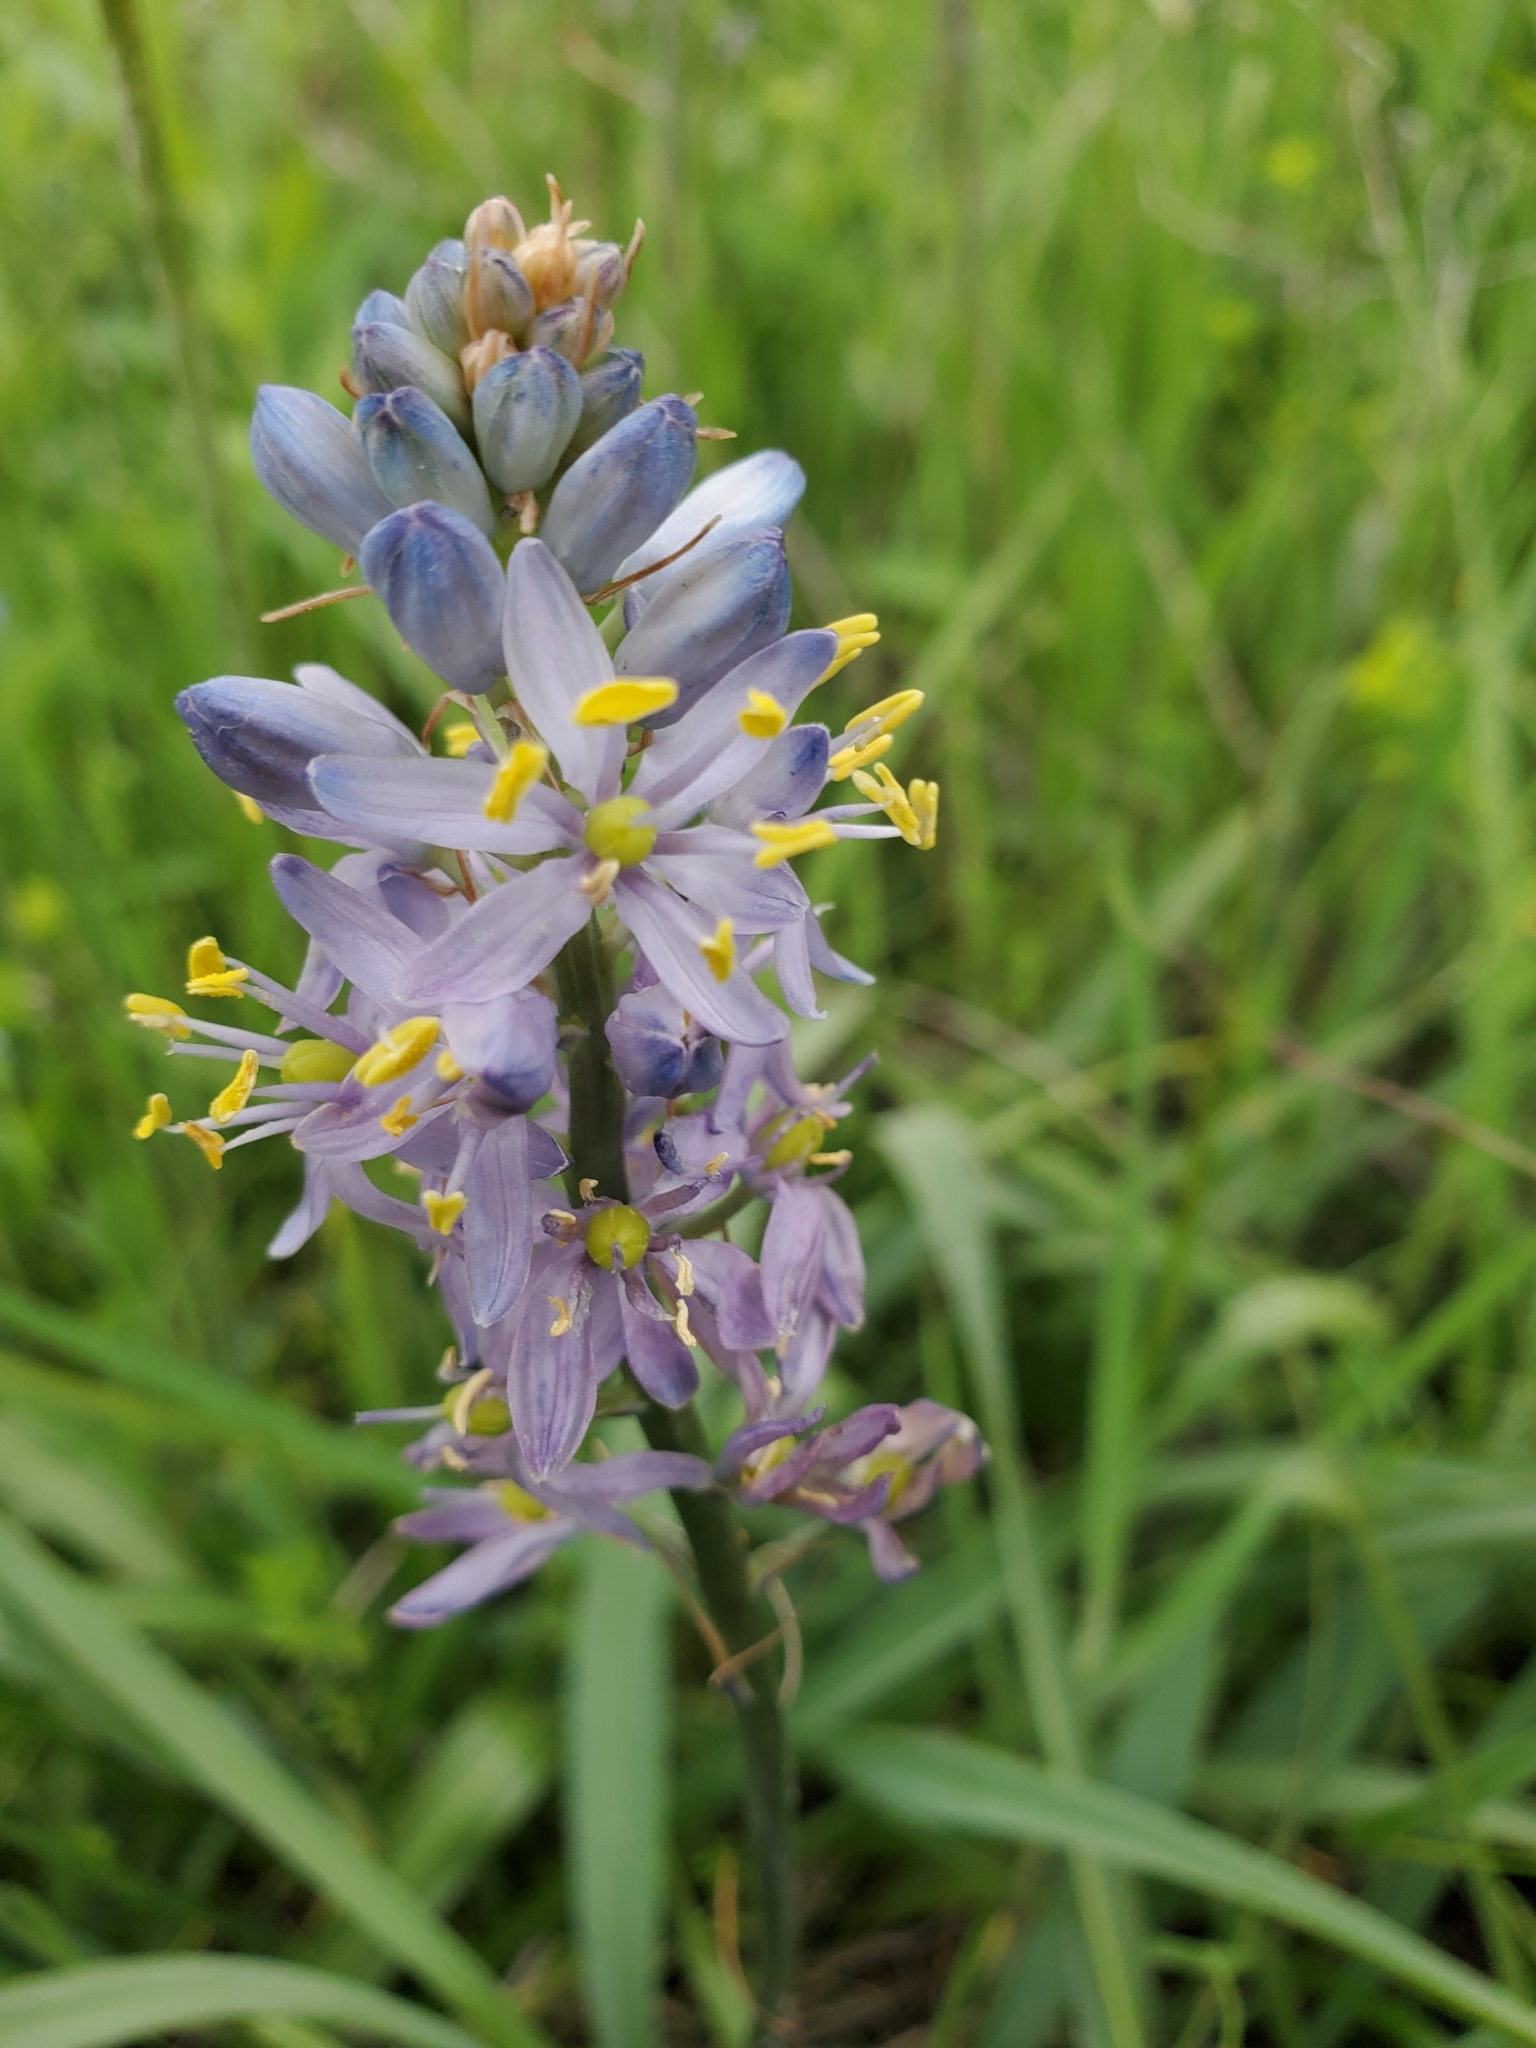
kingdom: Plantae
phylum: Tracheophyta
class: Liliopsida
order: Asparagales
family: Asparagaceae
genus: Camassia
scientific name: Camassia scilloides
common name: Wild hyacinth
